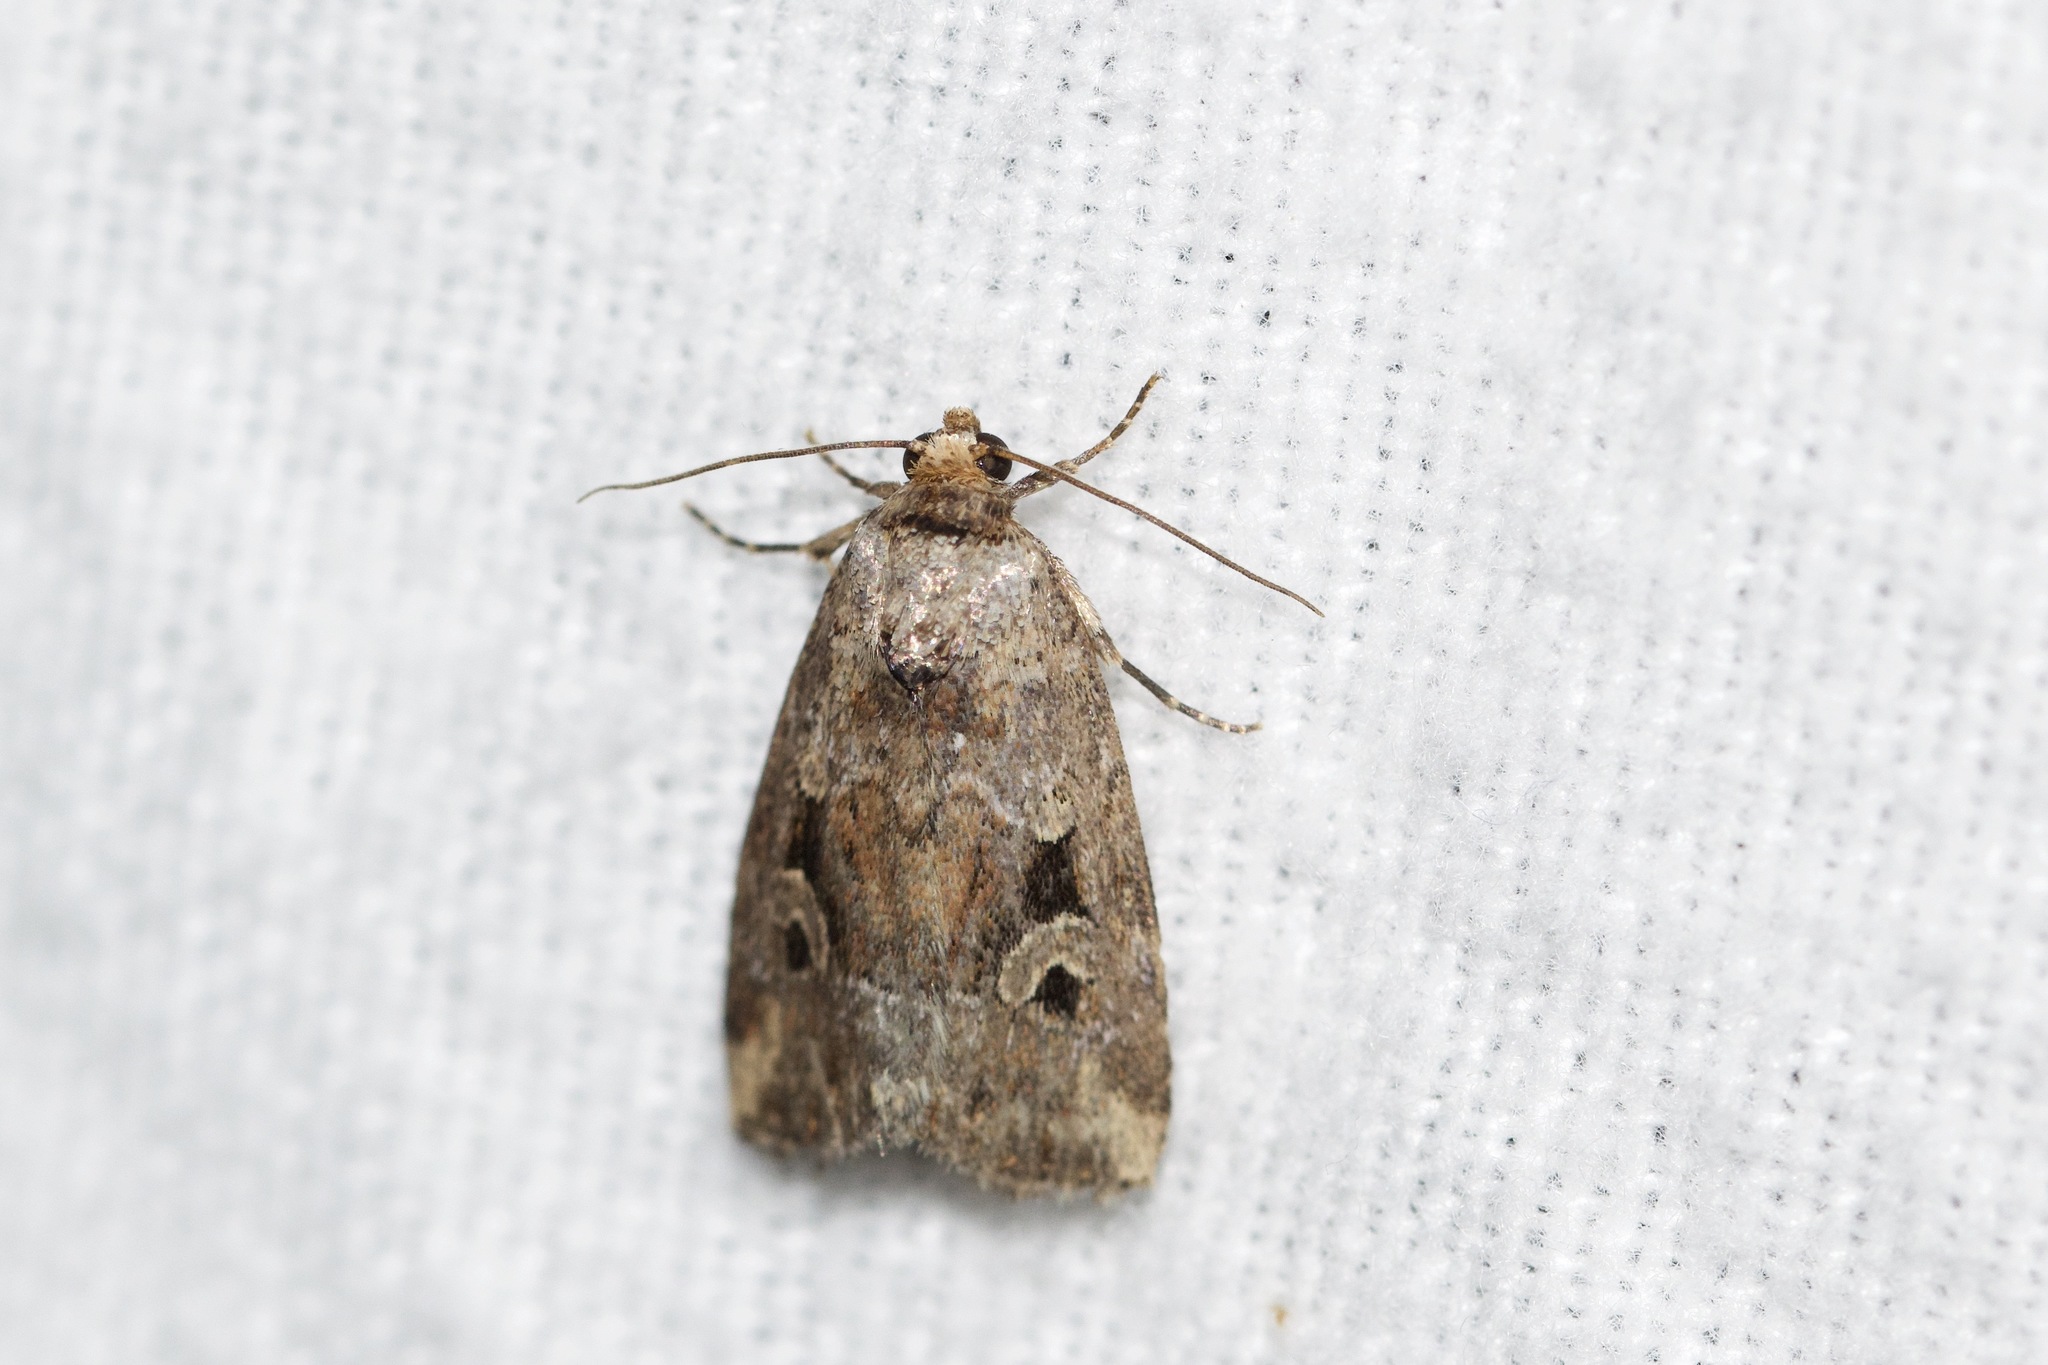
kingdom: Animalia
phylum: Arthropoda
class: Insecta
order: Lepidoptera
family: Noctuidae
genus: Elaphria
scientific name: Elaphria alapallida
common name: Pale-winged midget
